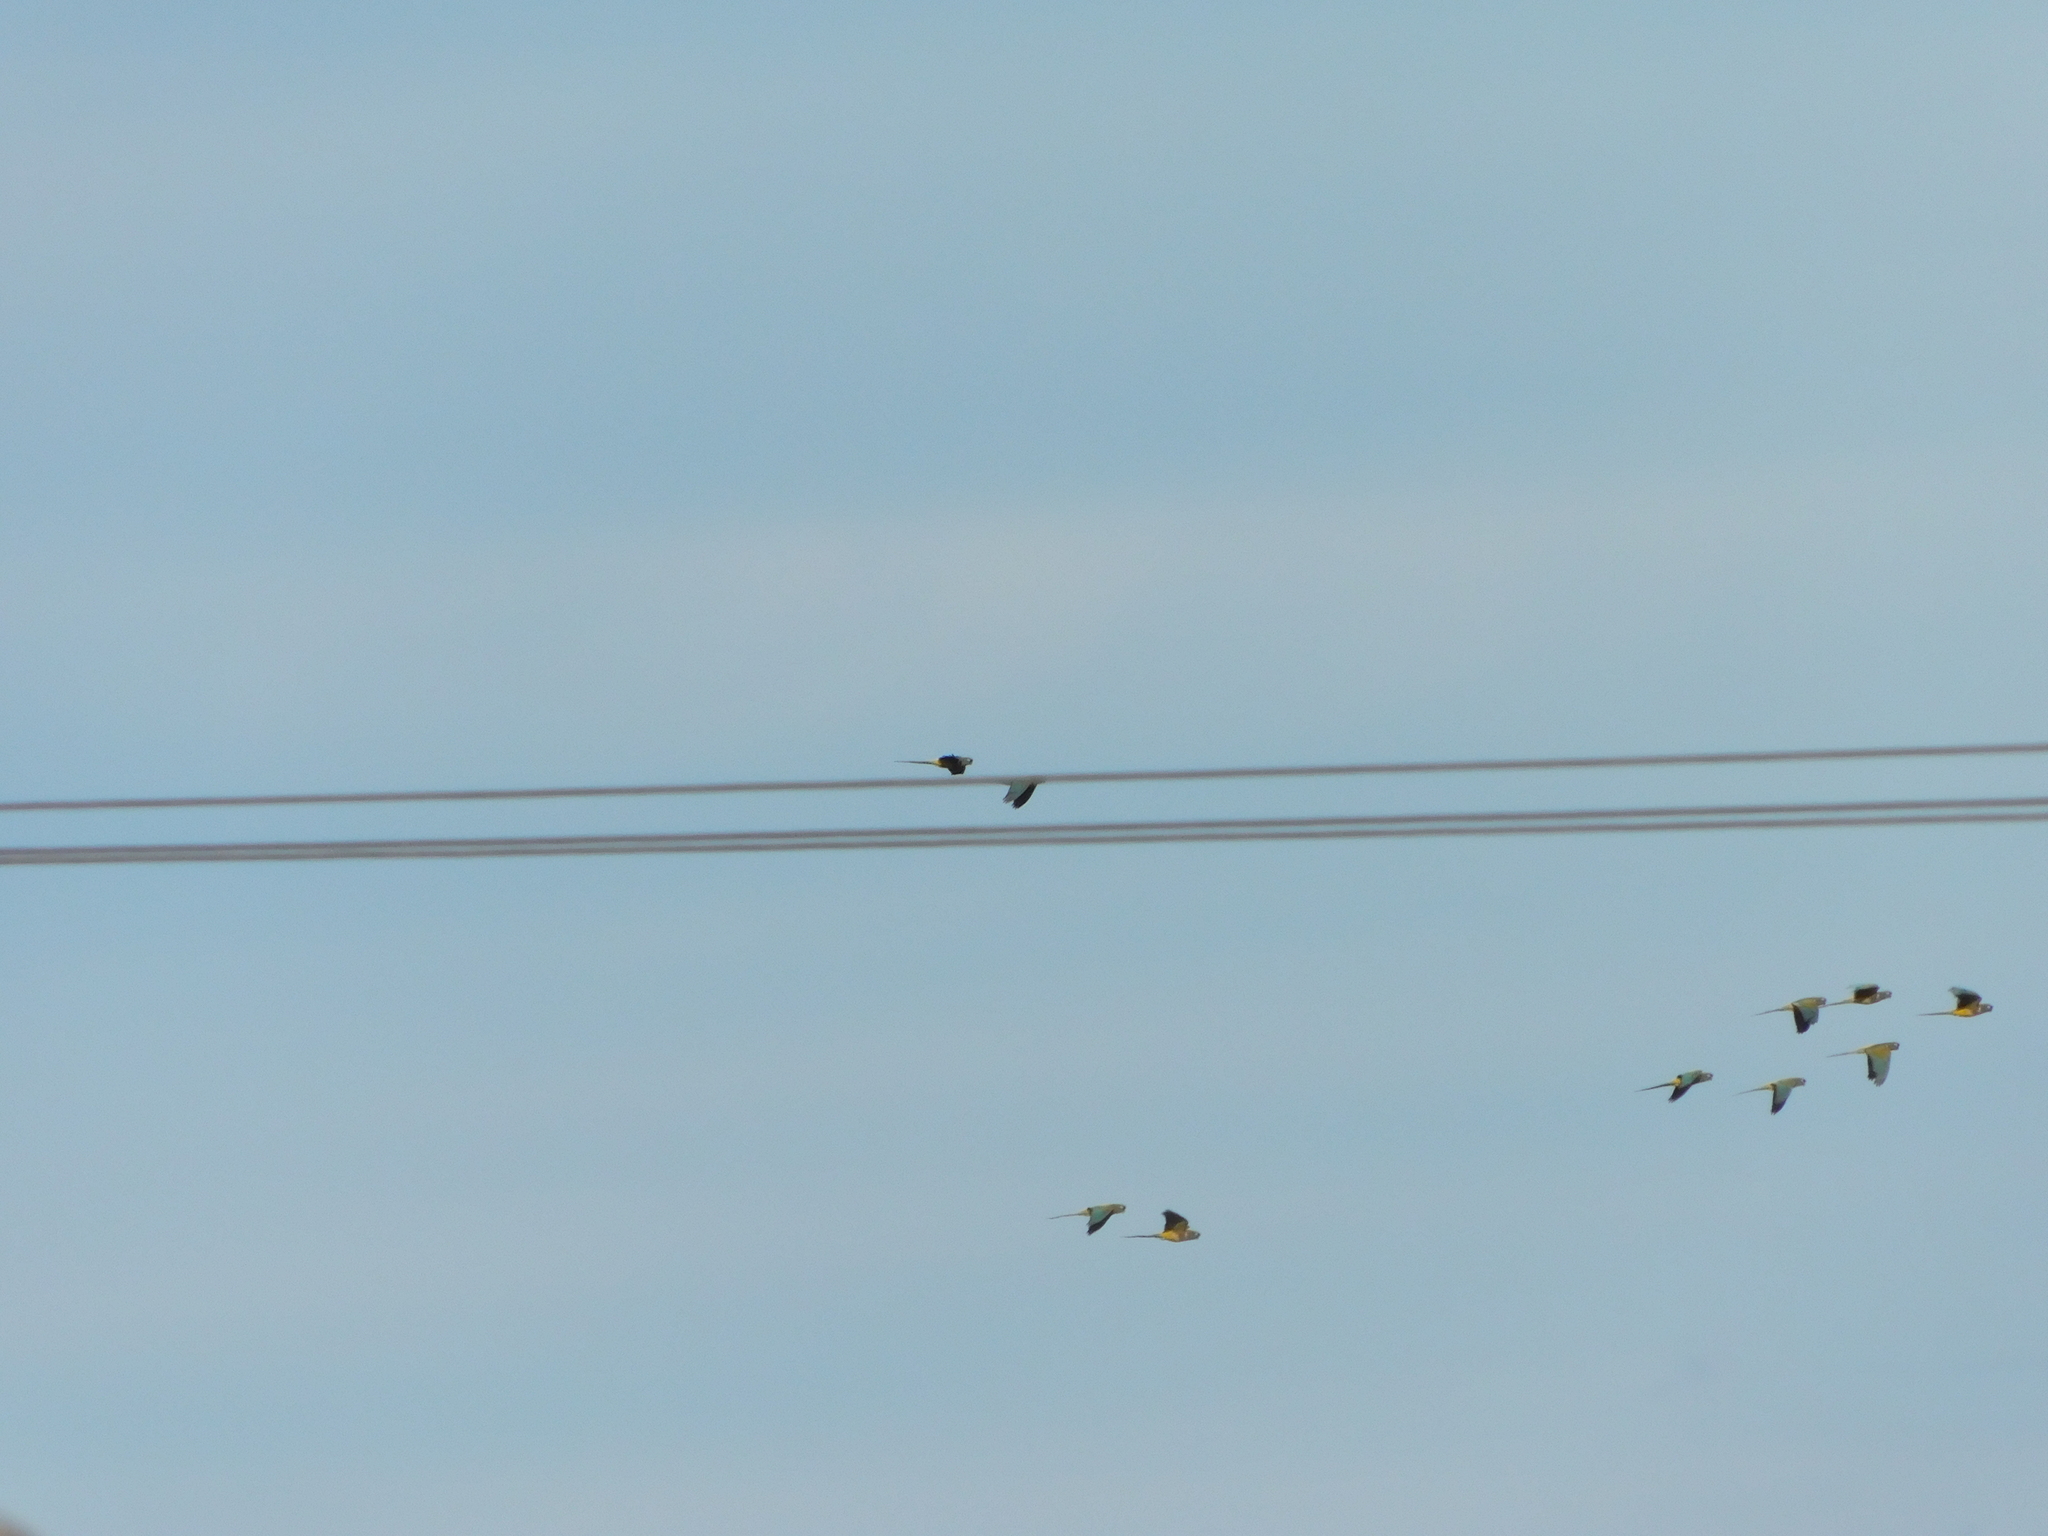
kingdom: Animalia
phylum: Chordata
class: Aves
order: Psittaciformes
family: Psittacidae
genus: Cyanoliseus
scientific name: Cyanoliseus patagonus
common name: Burrowing parrot
